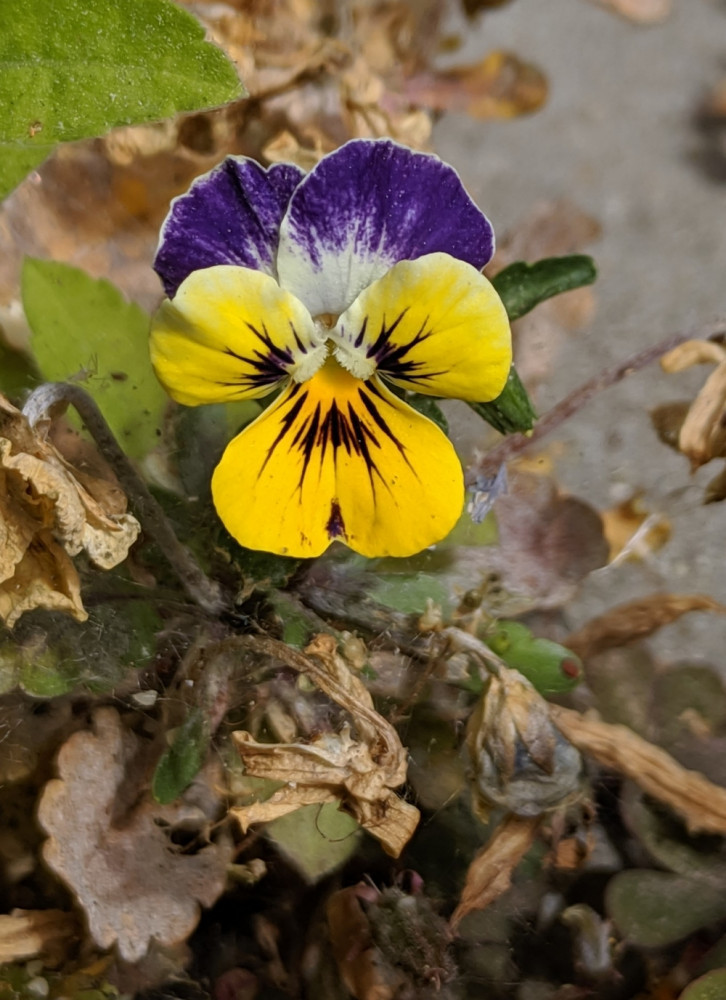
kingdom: Plantae
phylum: Tracheophyta
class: Magnoliopsida
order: Malpighiales
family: Violaceae
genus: Viola
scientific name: Viola wittrockiana
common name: Garden pansy
